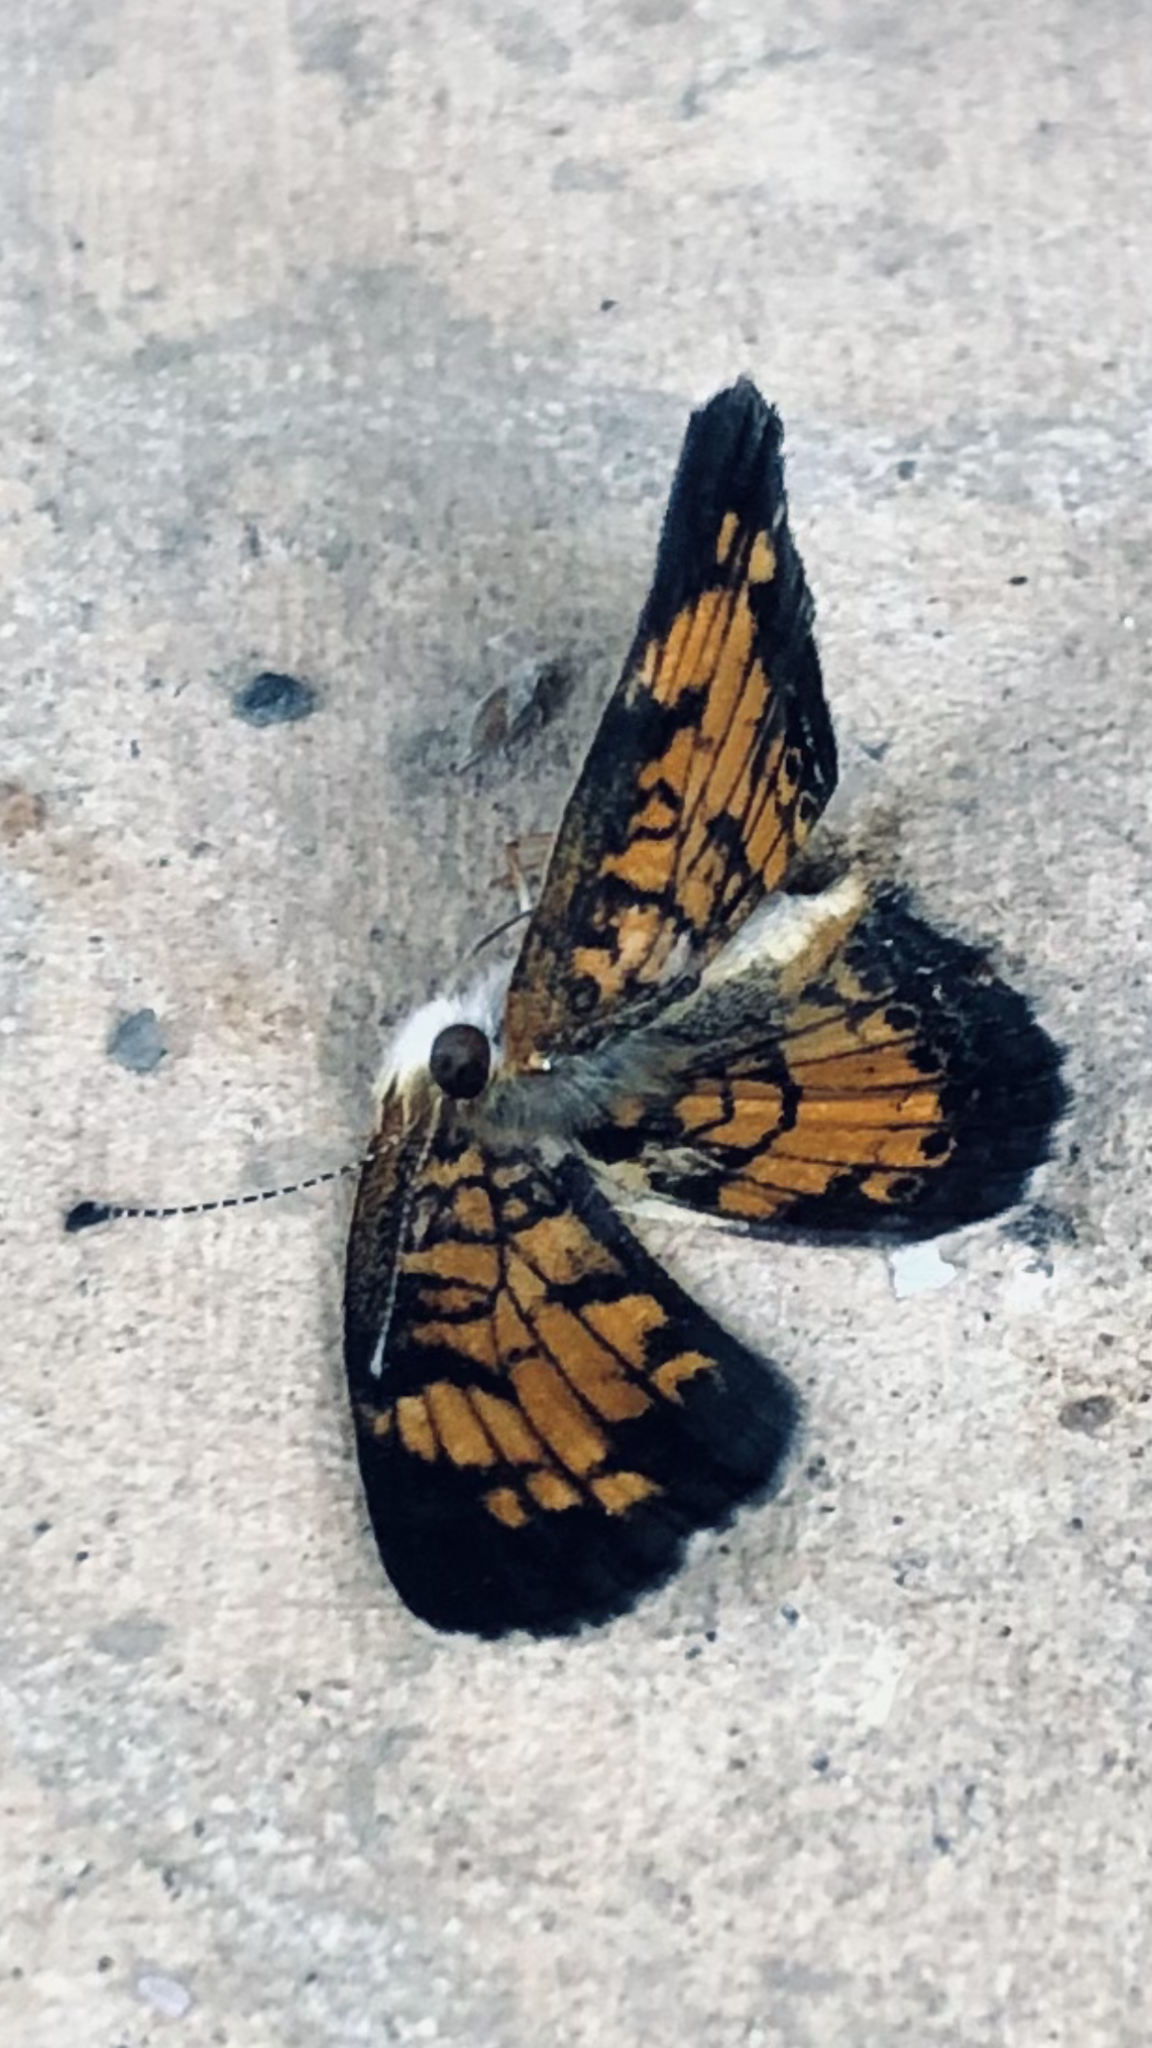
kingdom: Animalia
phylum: Arthropoda
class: Insecta
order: Lepidoptera
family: Nymphalidae
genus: Phyciodes
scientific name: Phyciodes tharos
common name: Pearl crescent
